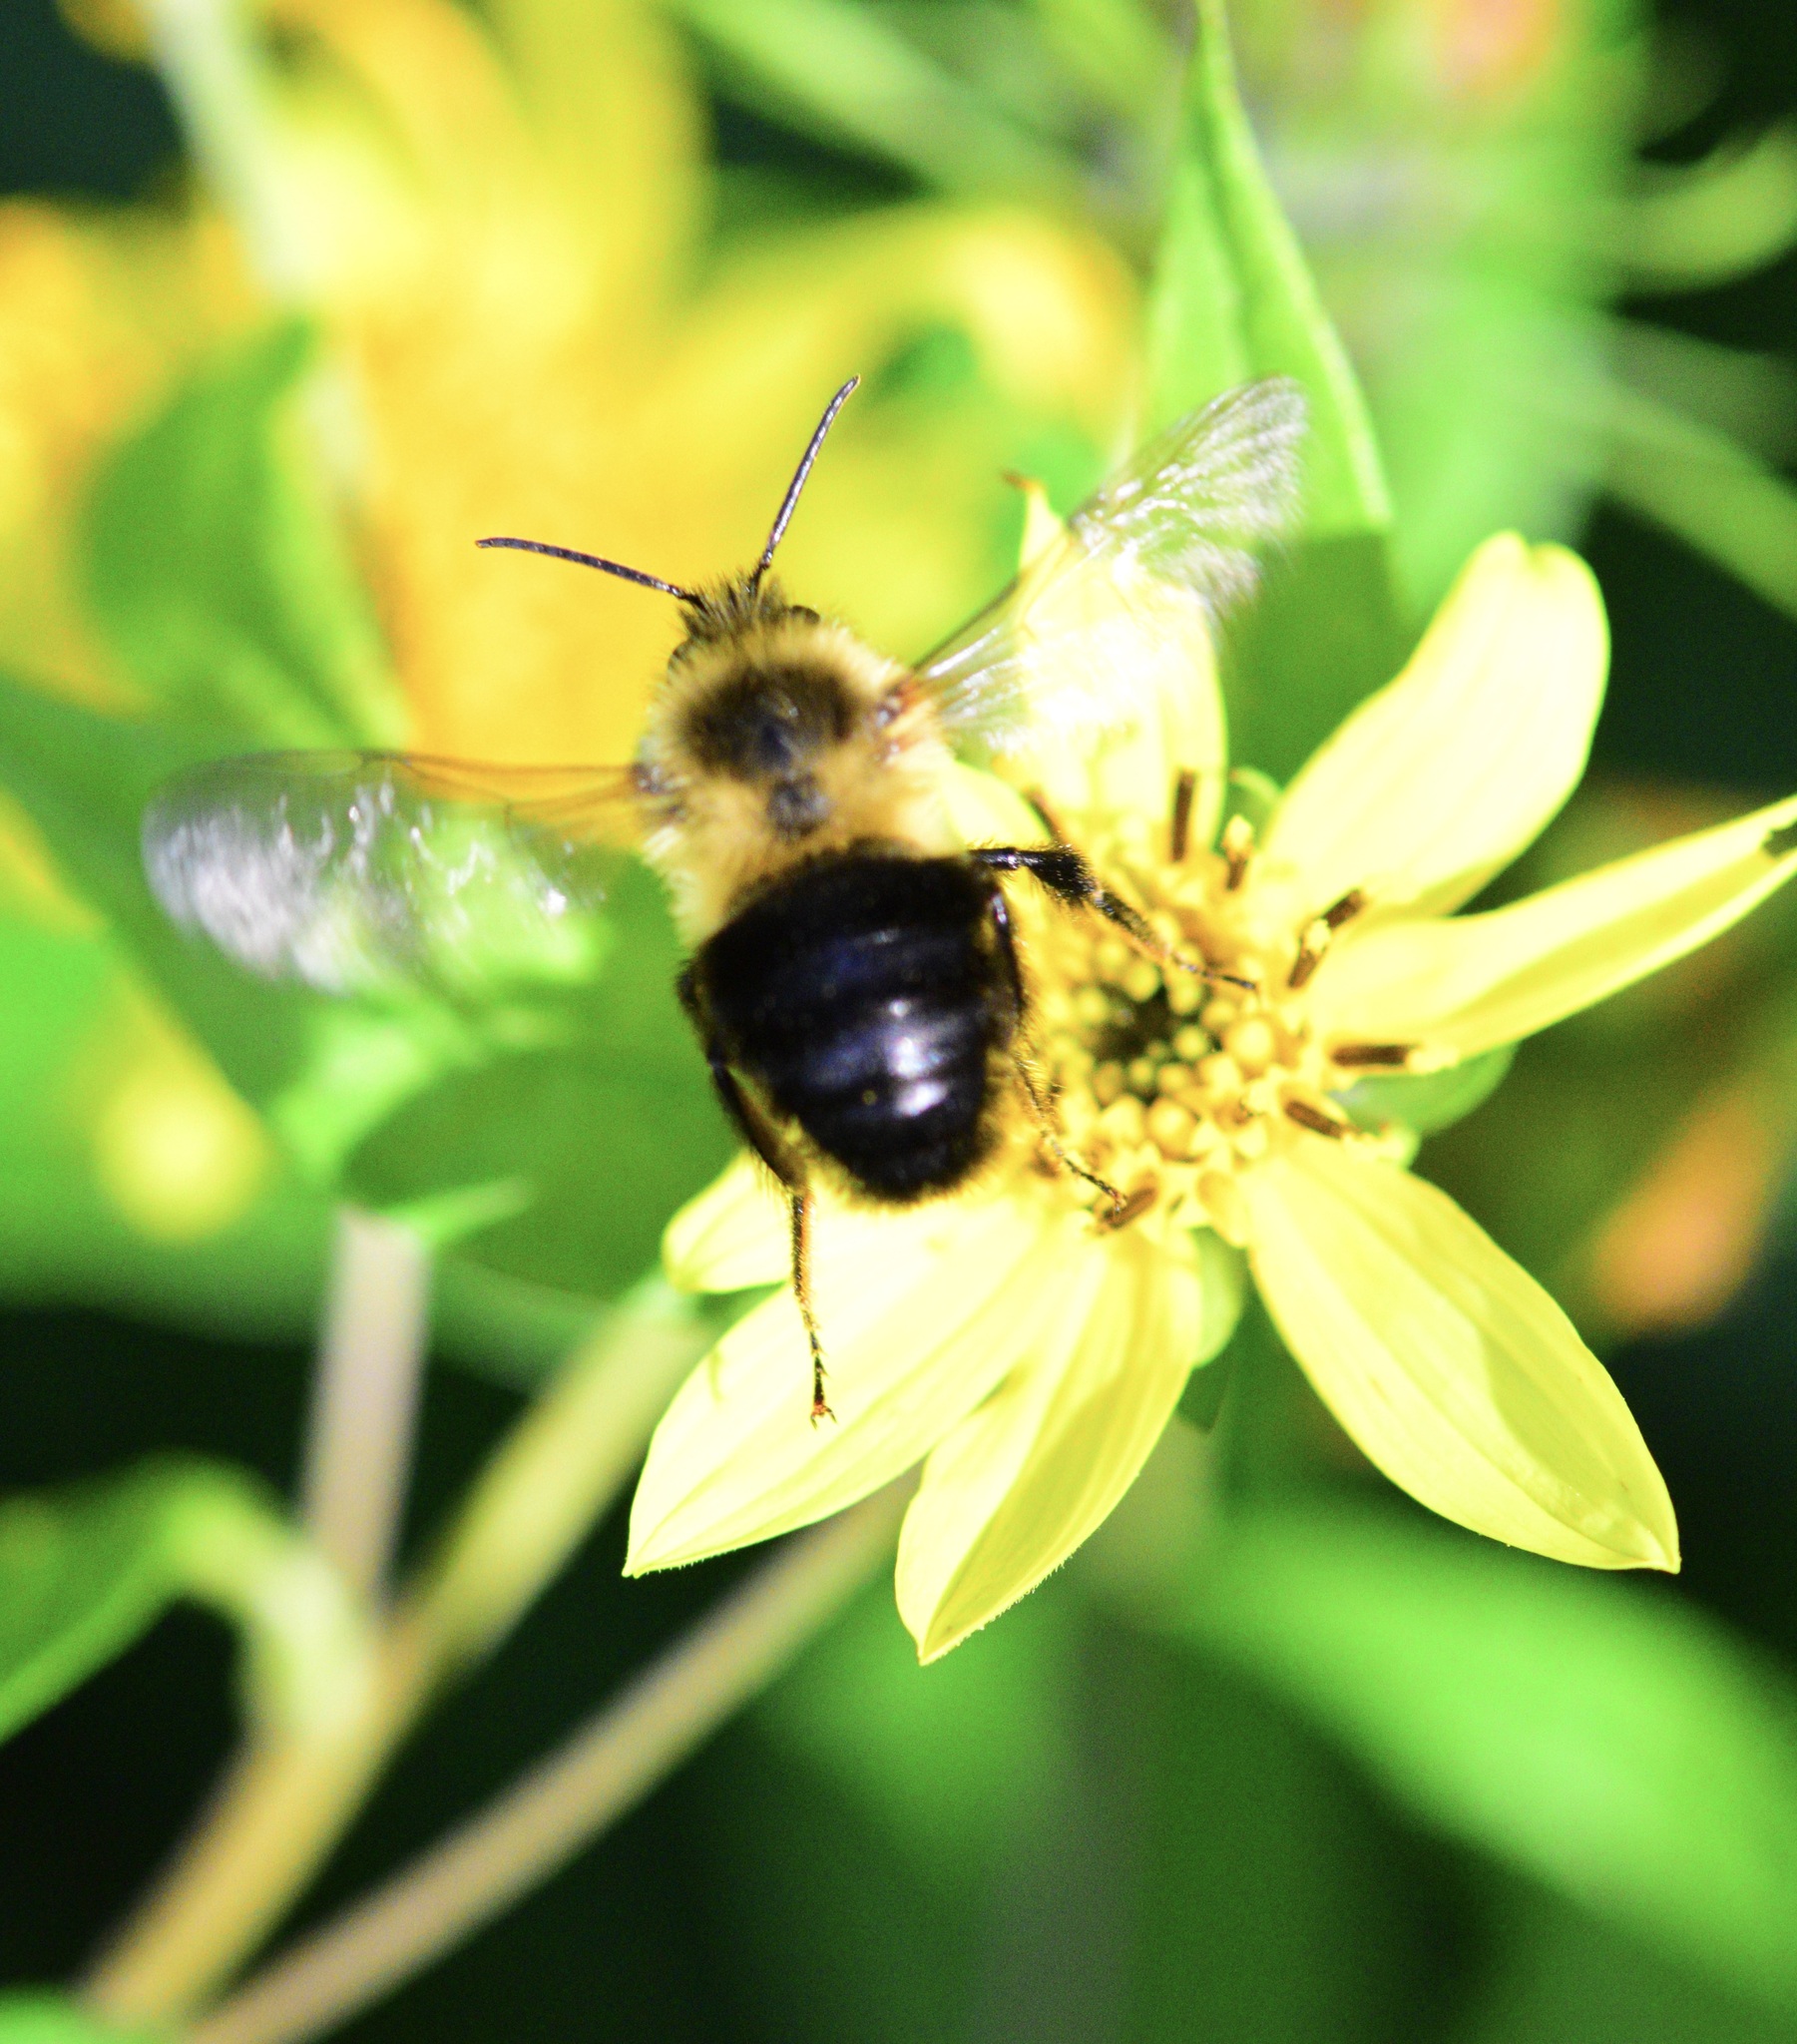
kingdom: Animalia
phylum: Arthropoda
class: Insecta
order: Hymenoptera
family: Apidae
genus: Bombus
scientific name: Bombus impatiens
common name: Common eastern bumble bee
